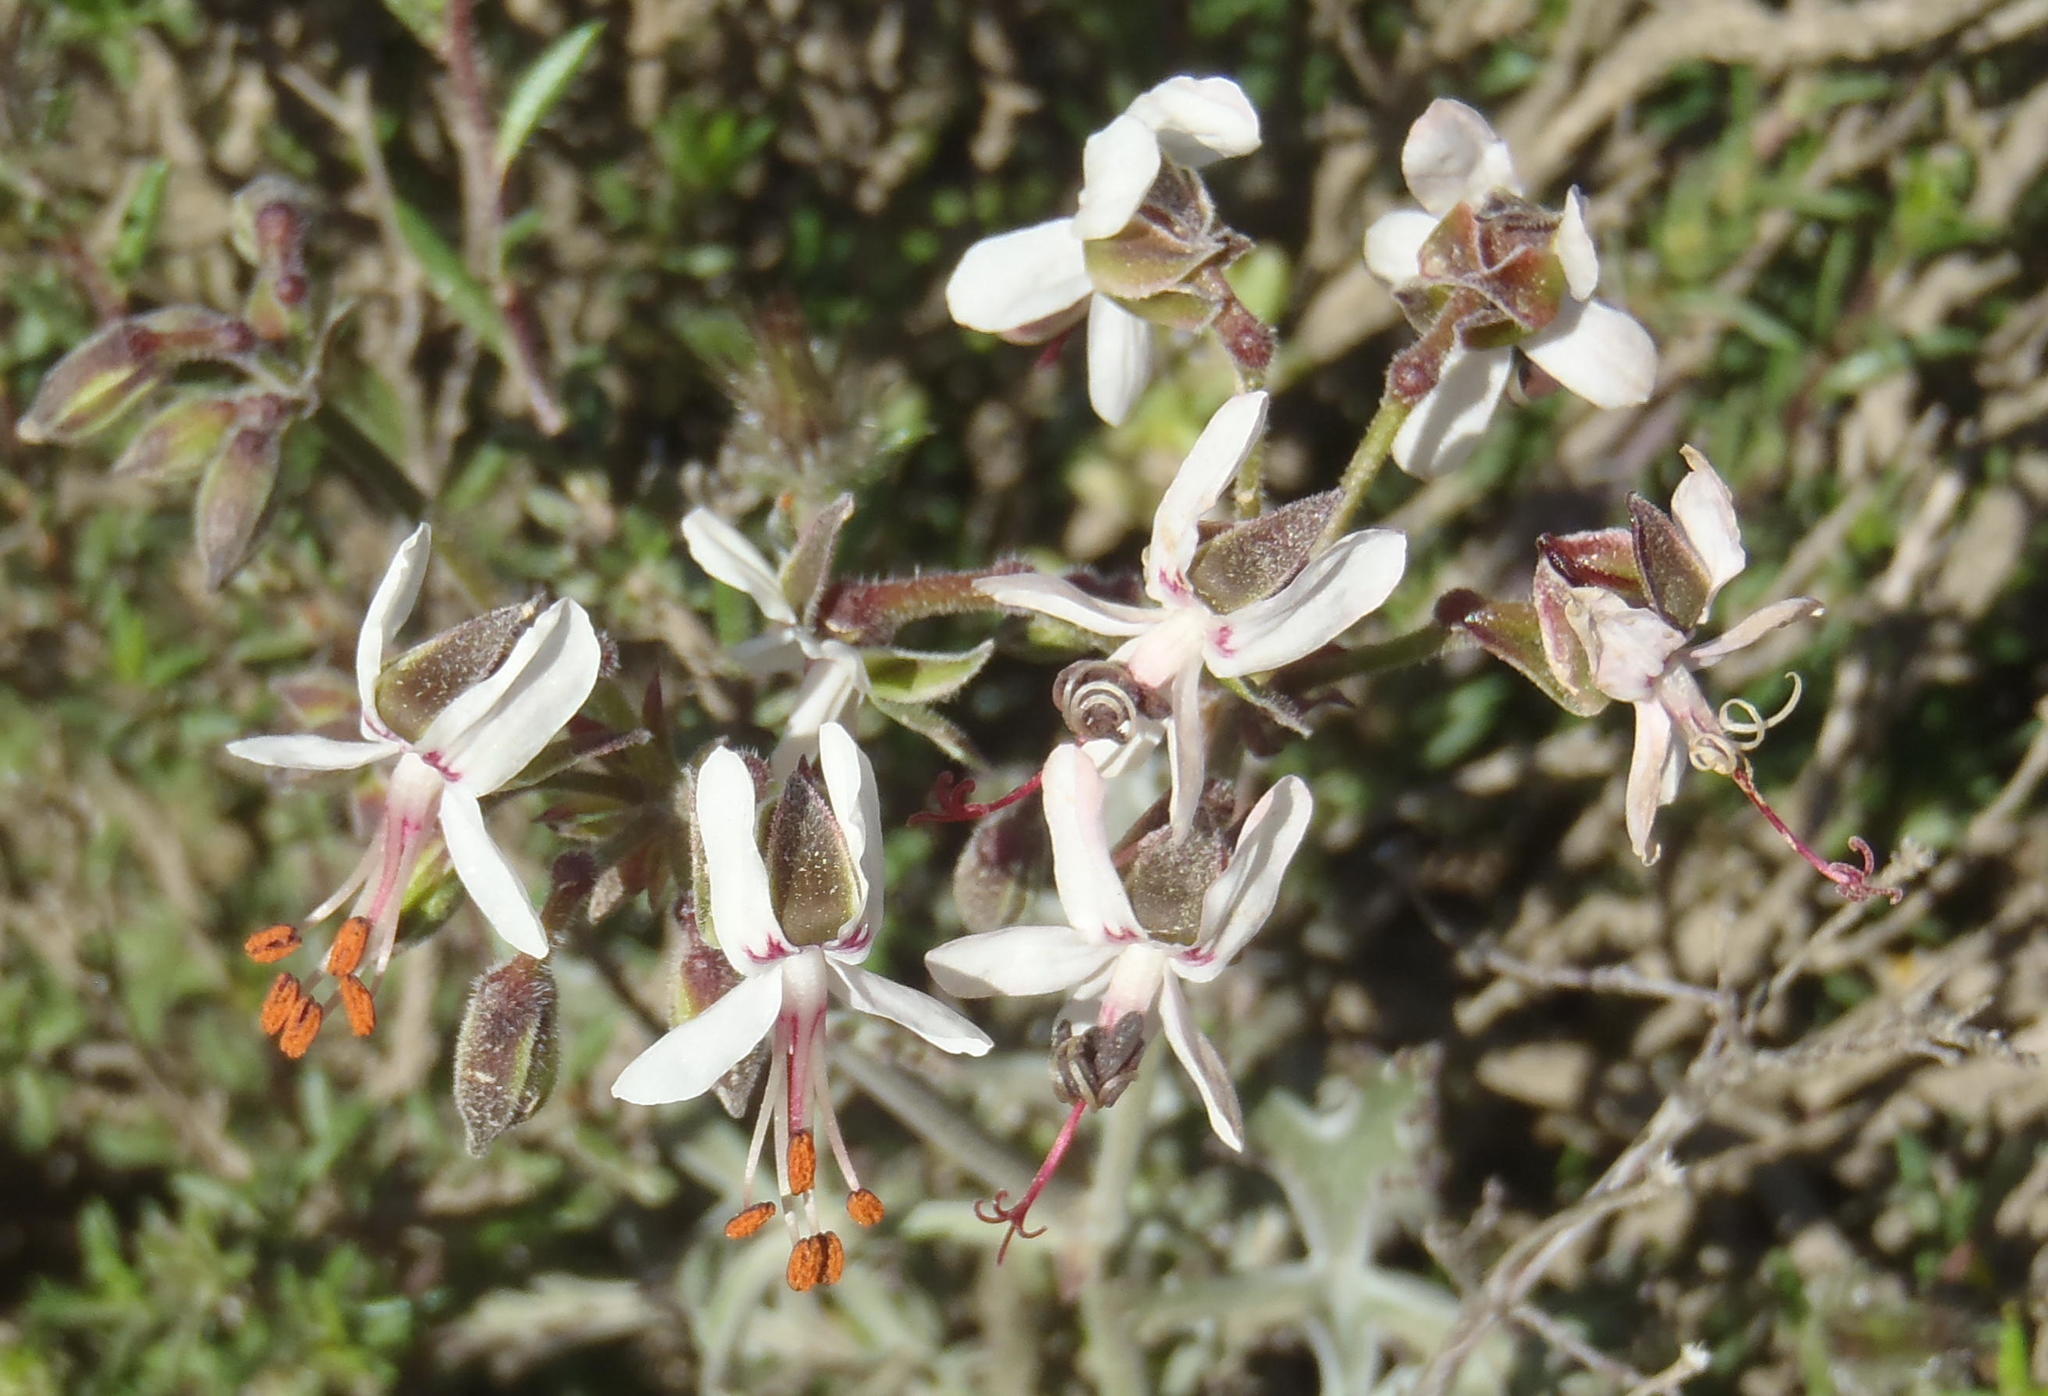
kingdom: Plantae
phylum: Tracheophyta
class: Magnoliopsida
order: Geraniales
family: Geraniaceae
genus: Pelargonium
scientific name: Pelargonium laxum
